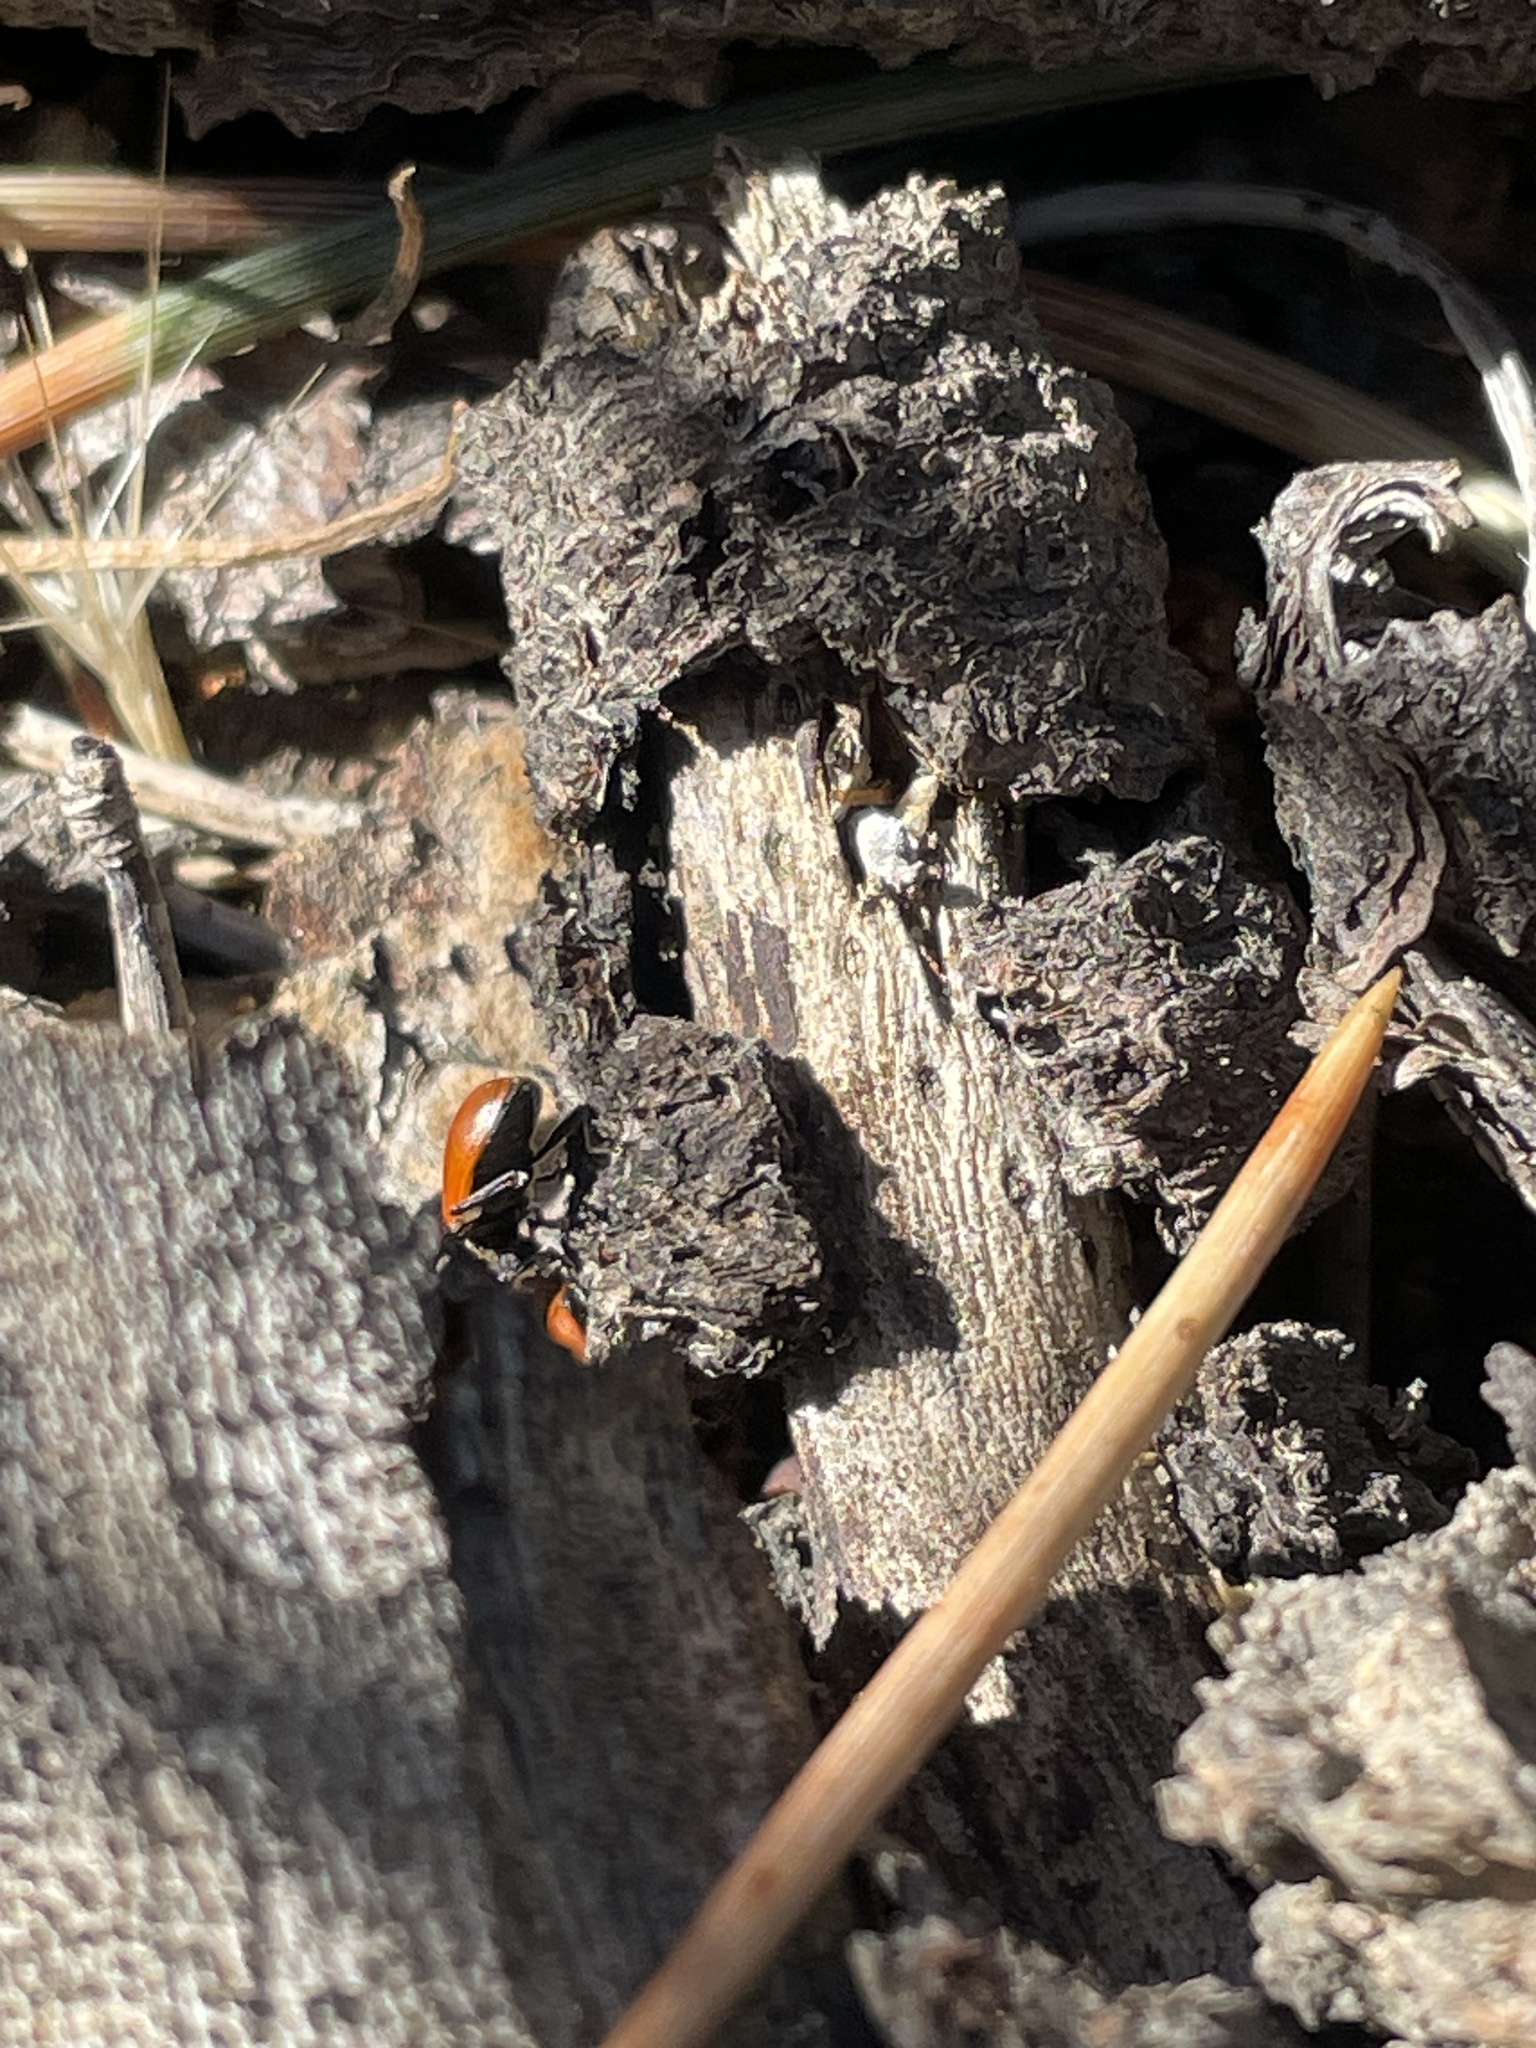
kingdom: Animalia
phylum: Arthropoda
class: Insecta
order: Coleoptera
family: Coccinellidae
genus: Hippodamia
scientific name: Hippodamia convergens
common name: Convergent lady beetle
